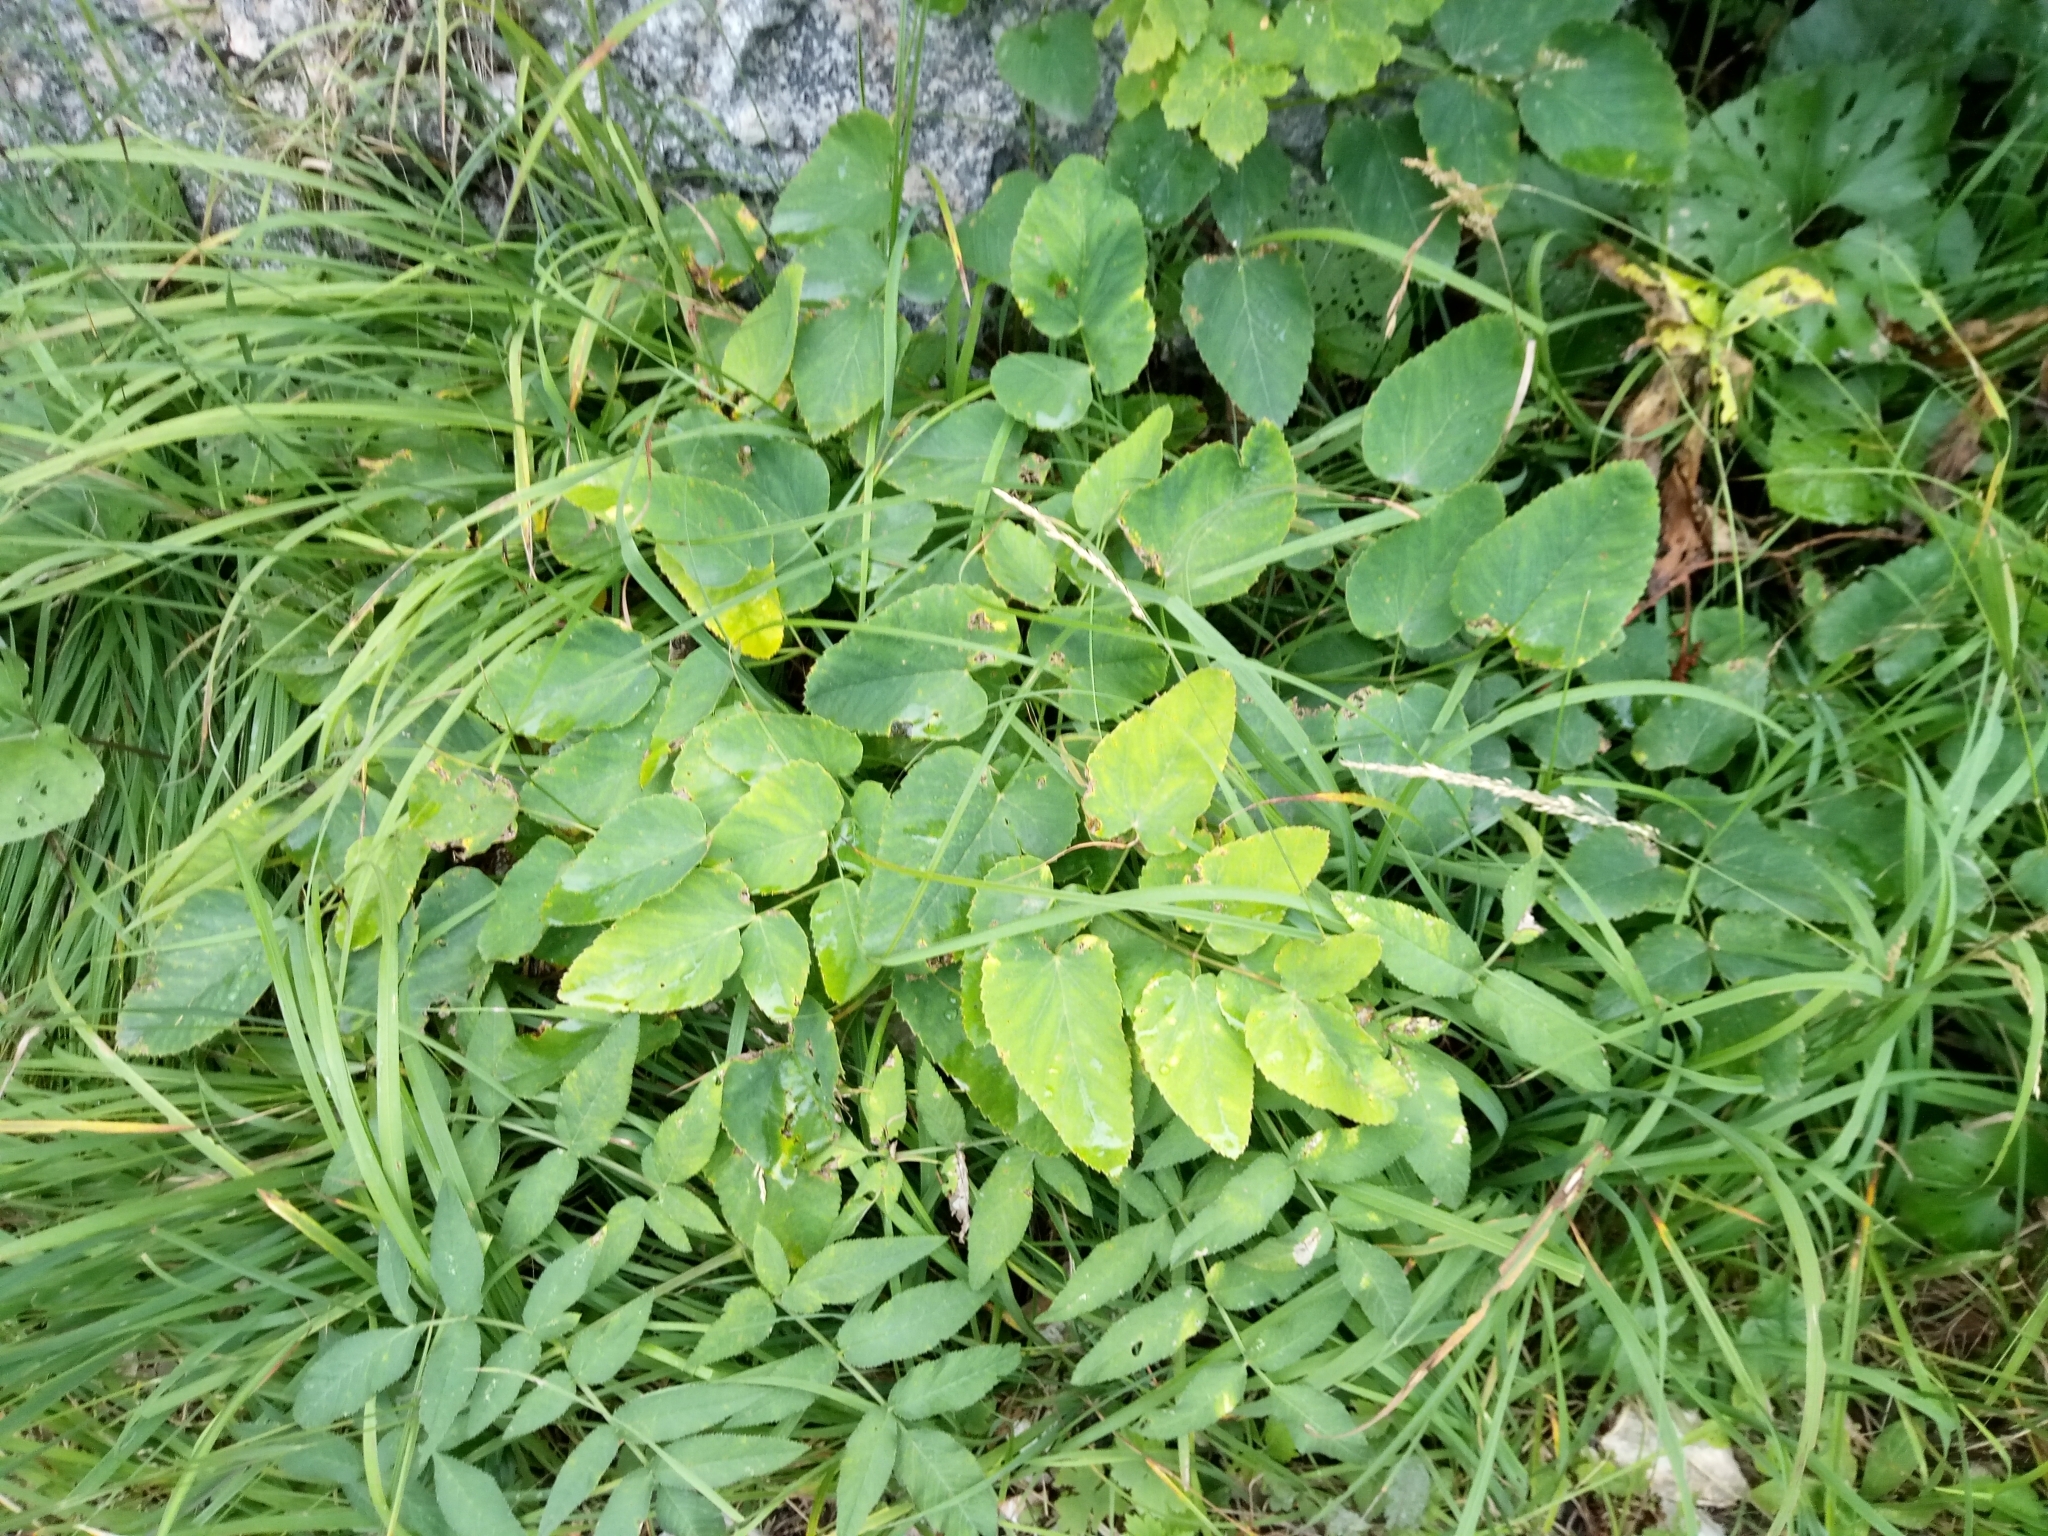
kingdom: Plantae
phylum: Tracheophyta
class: Magnoliopsida
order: Apiales
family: Apiaceae
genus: Laserpitium
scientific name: Laserpitium latifolium
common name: Broadleaf sermountain
